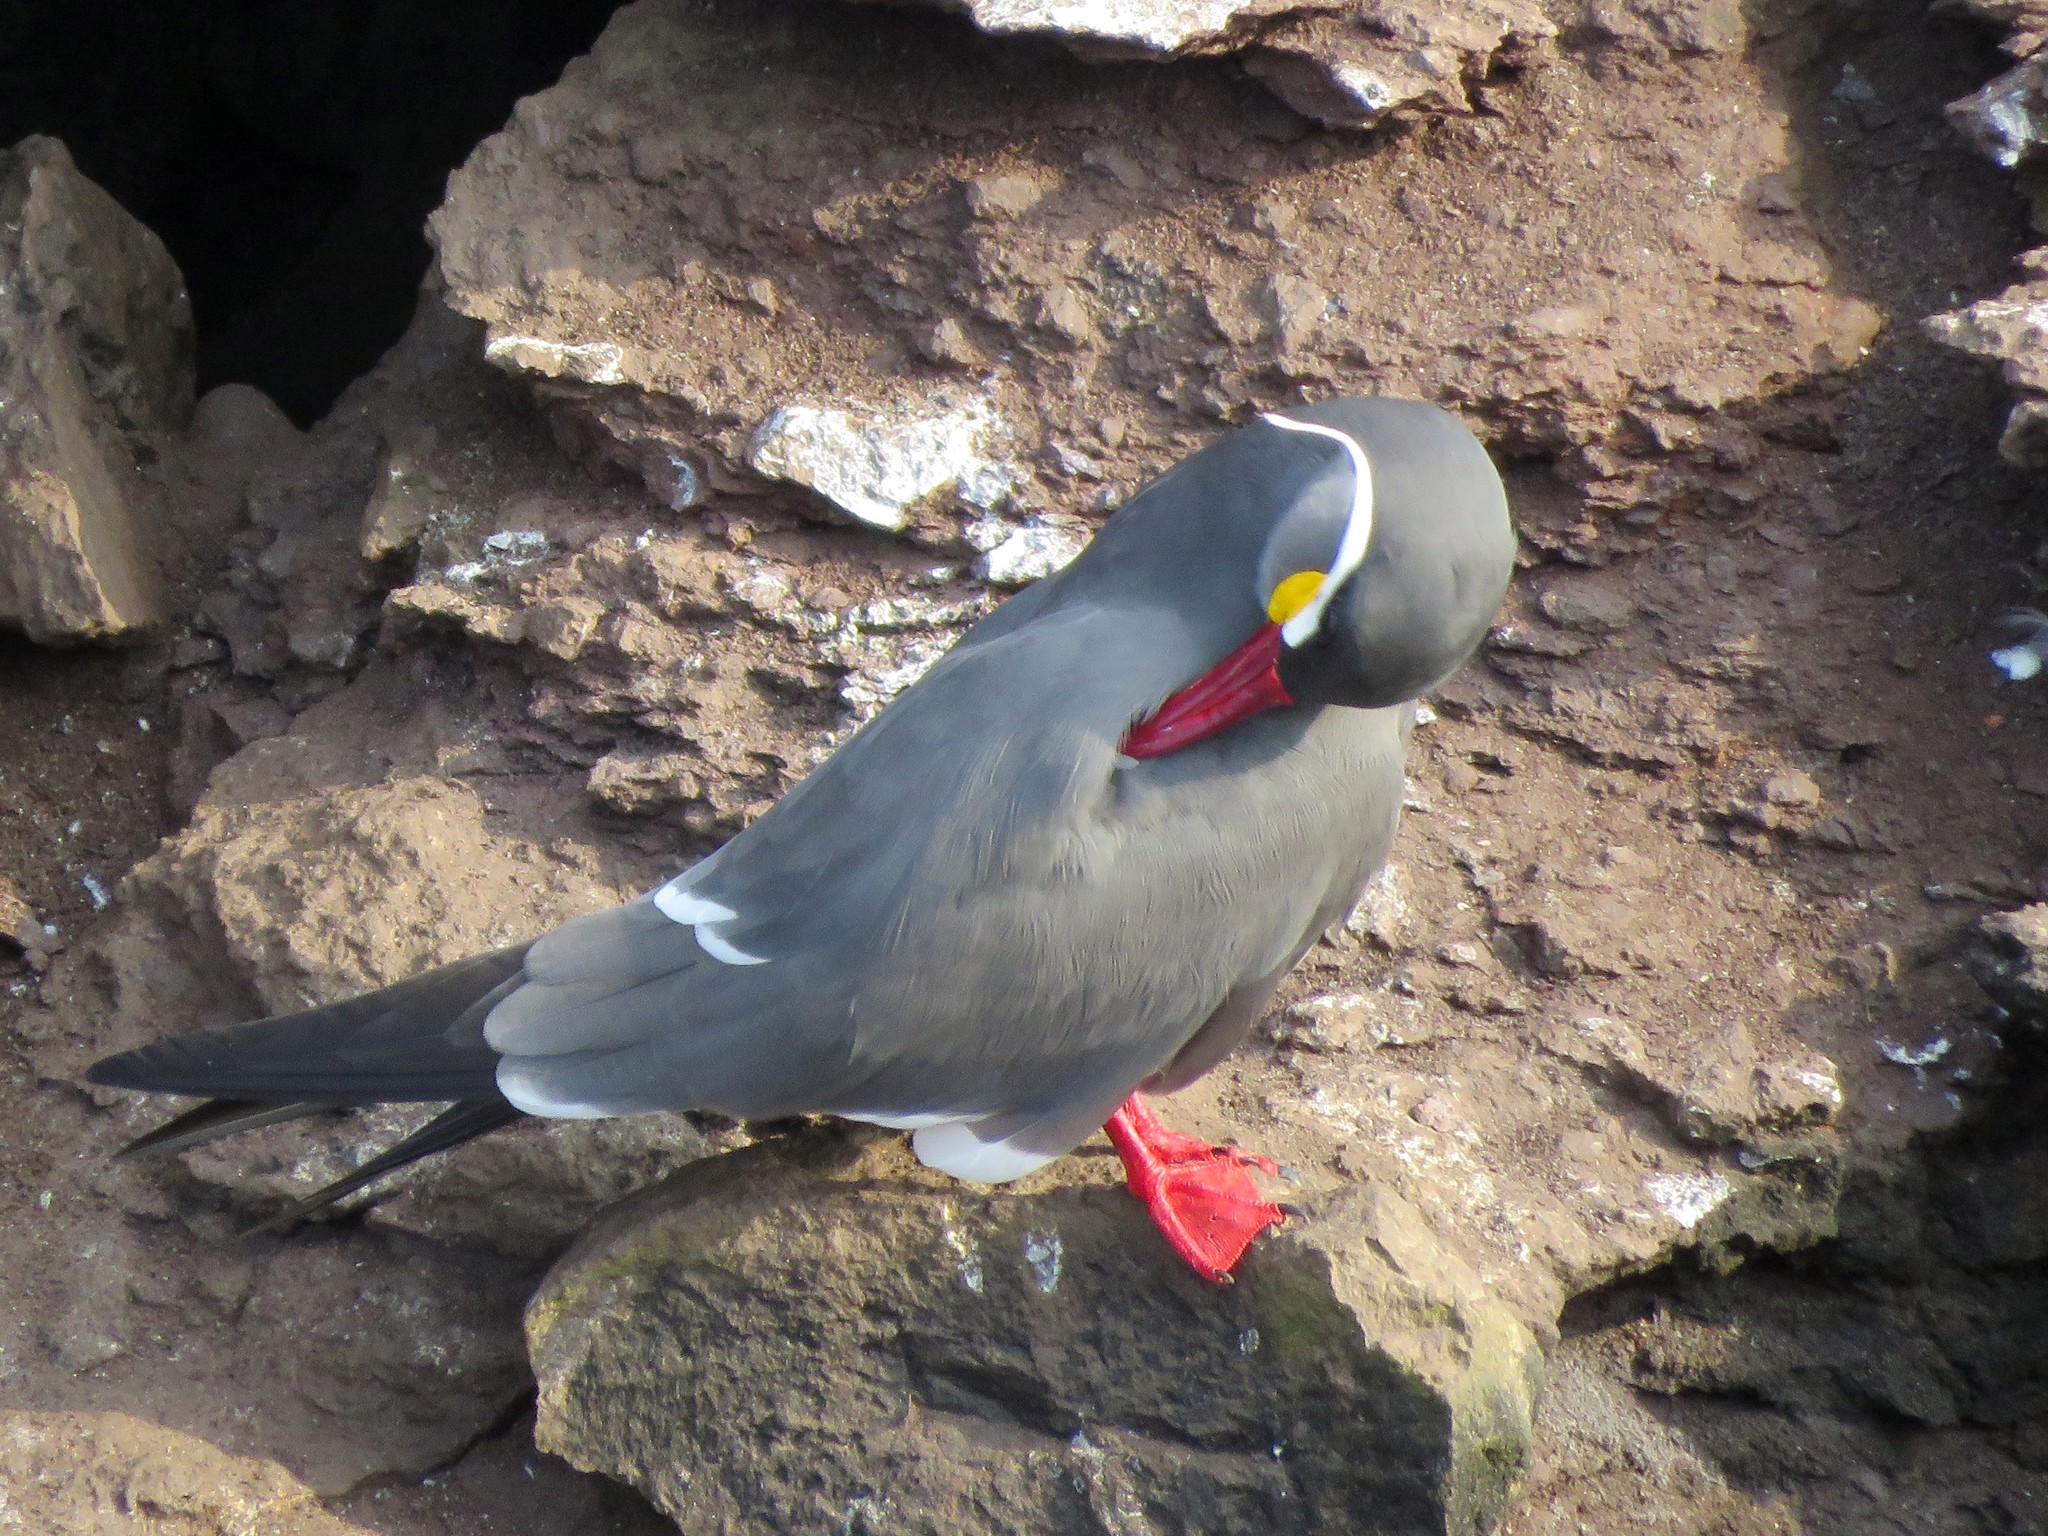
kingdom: Animalia
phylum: Chordata
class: Aves
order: Charadriiformes
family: Laridae
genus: Larosterna
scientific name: Larosterna inca
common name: Inca tern
